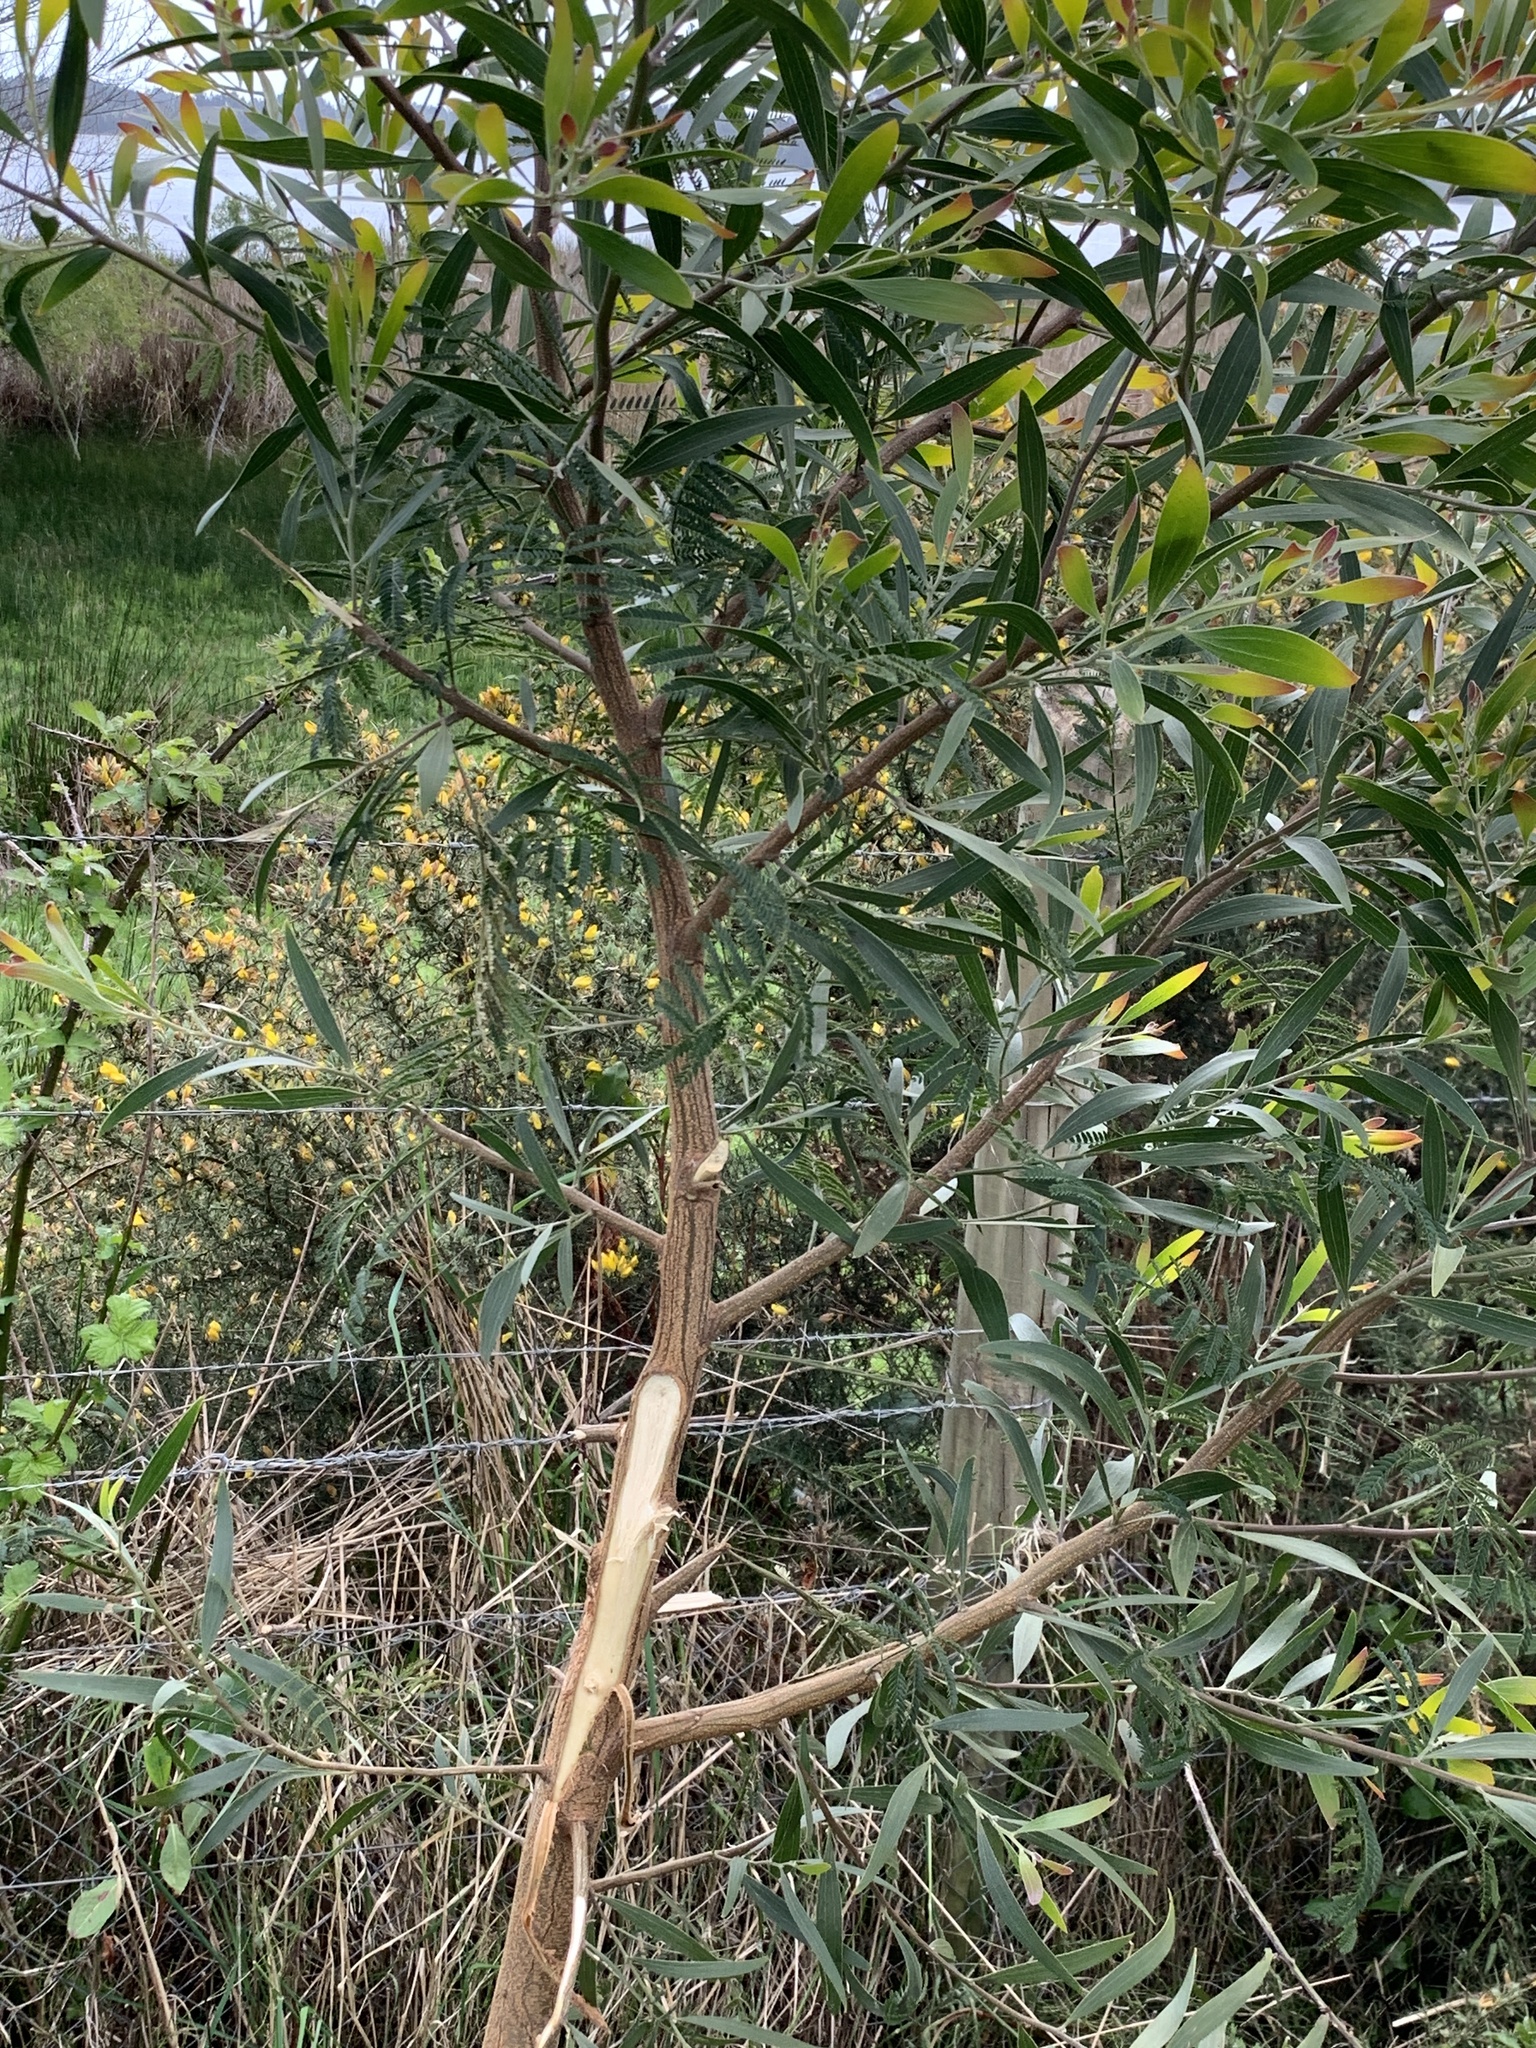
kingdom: Plantae
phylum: Tracheophyta
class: Magnoliopsida
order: Fabales
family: Fabaceae
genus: Acacia
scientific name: Acacia melanoxylon
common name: Blackwood
